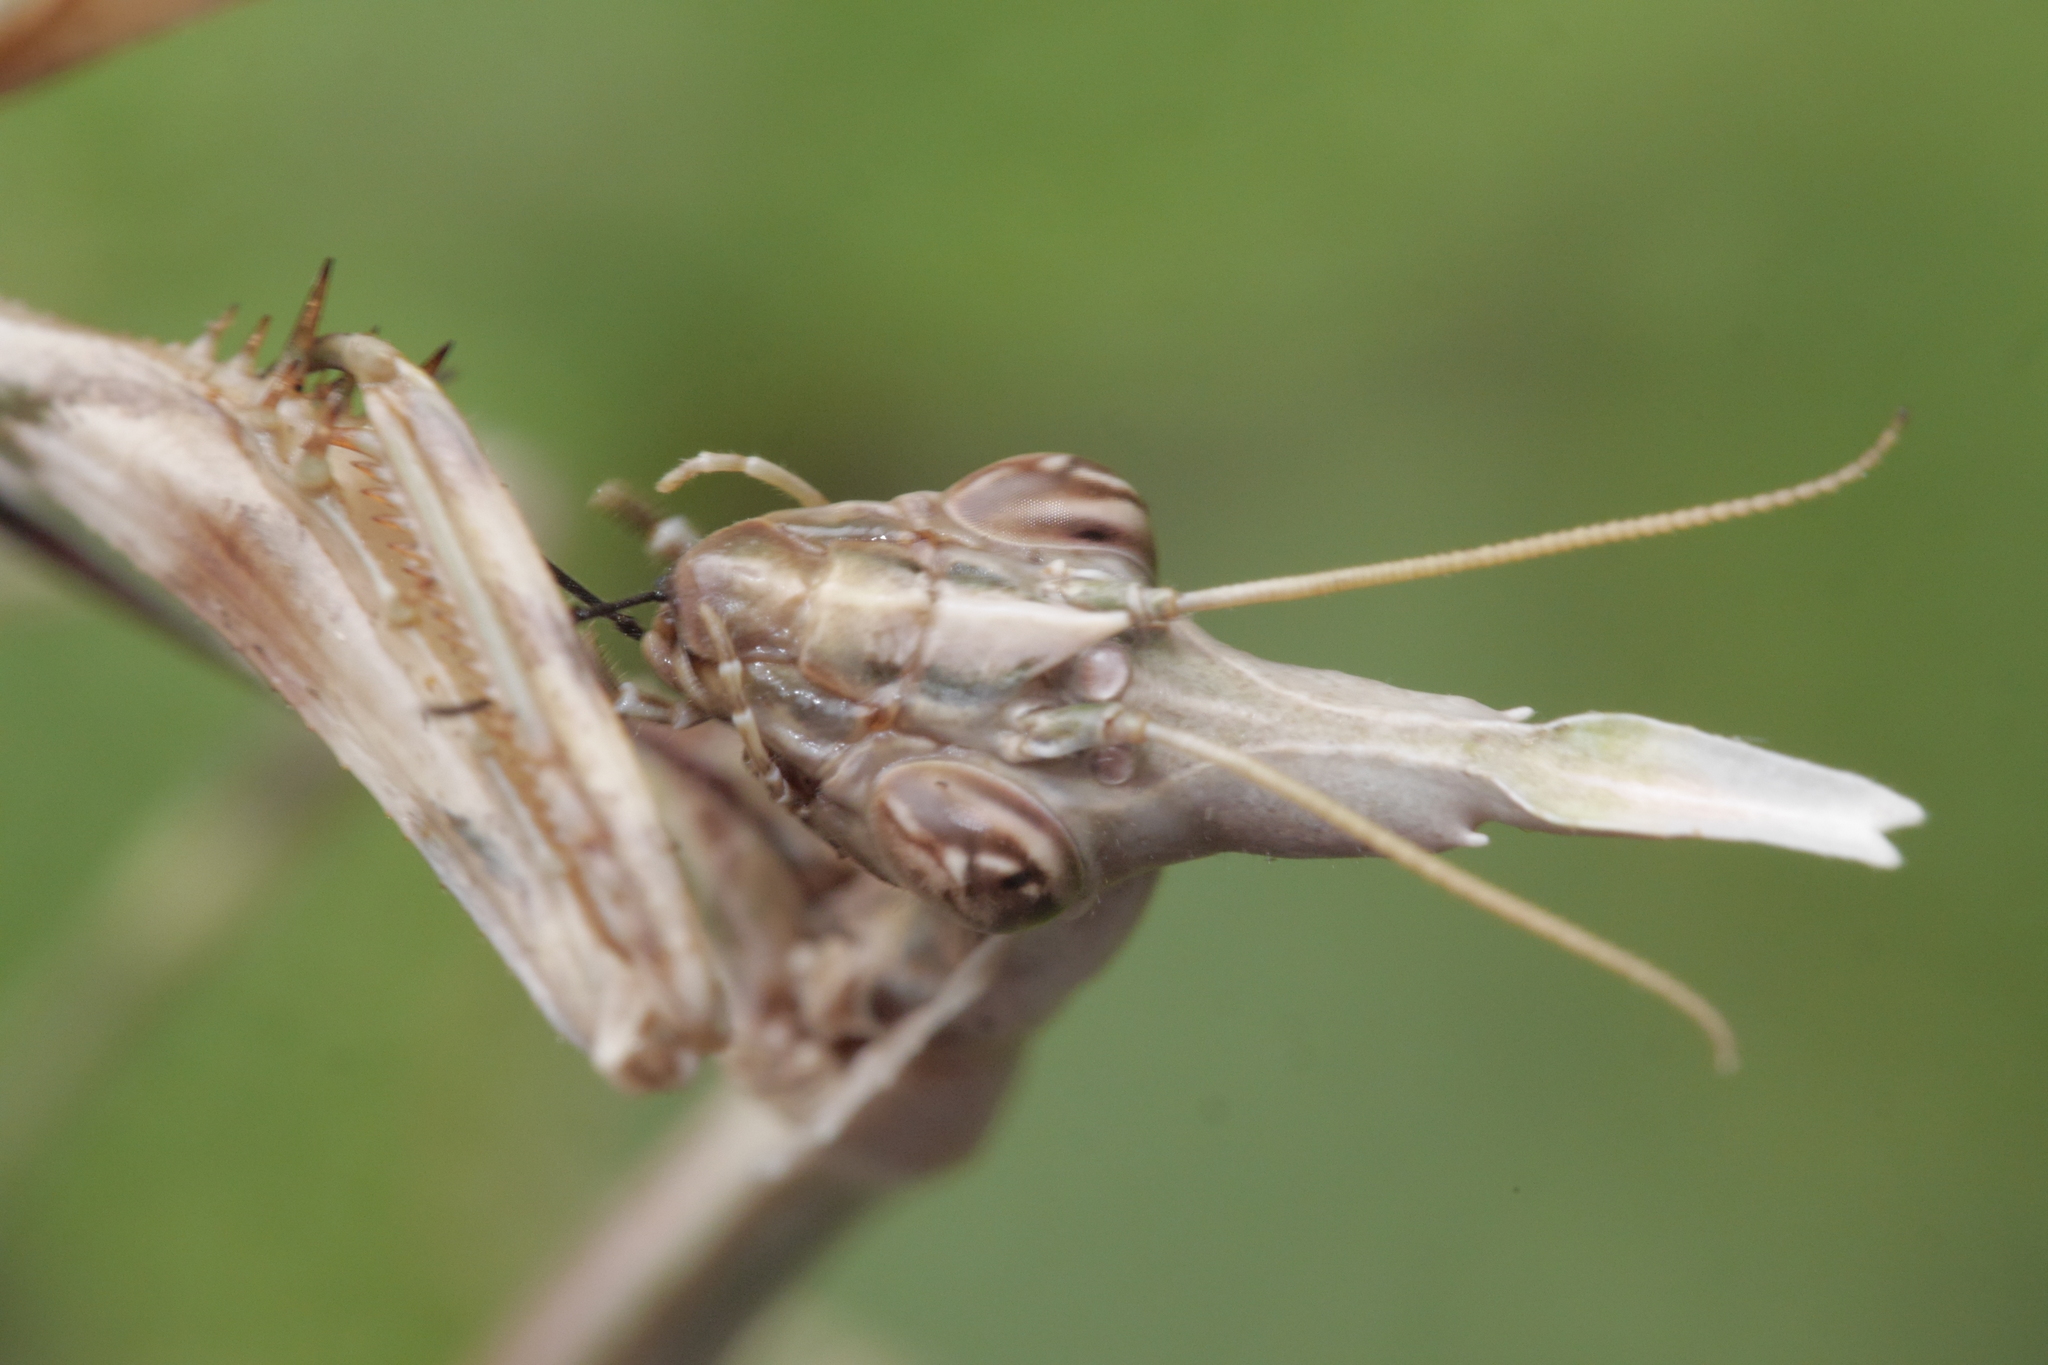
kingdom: Animalia
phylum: Arthropoda
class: Insecta
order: Mantodea
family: Empusidae
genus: Empusa
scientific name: Empusa pennata
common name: Conehead mantis
